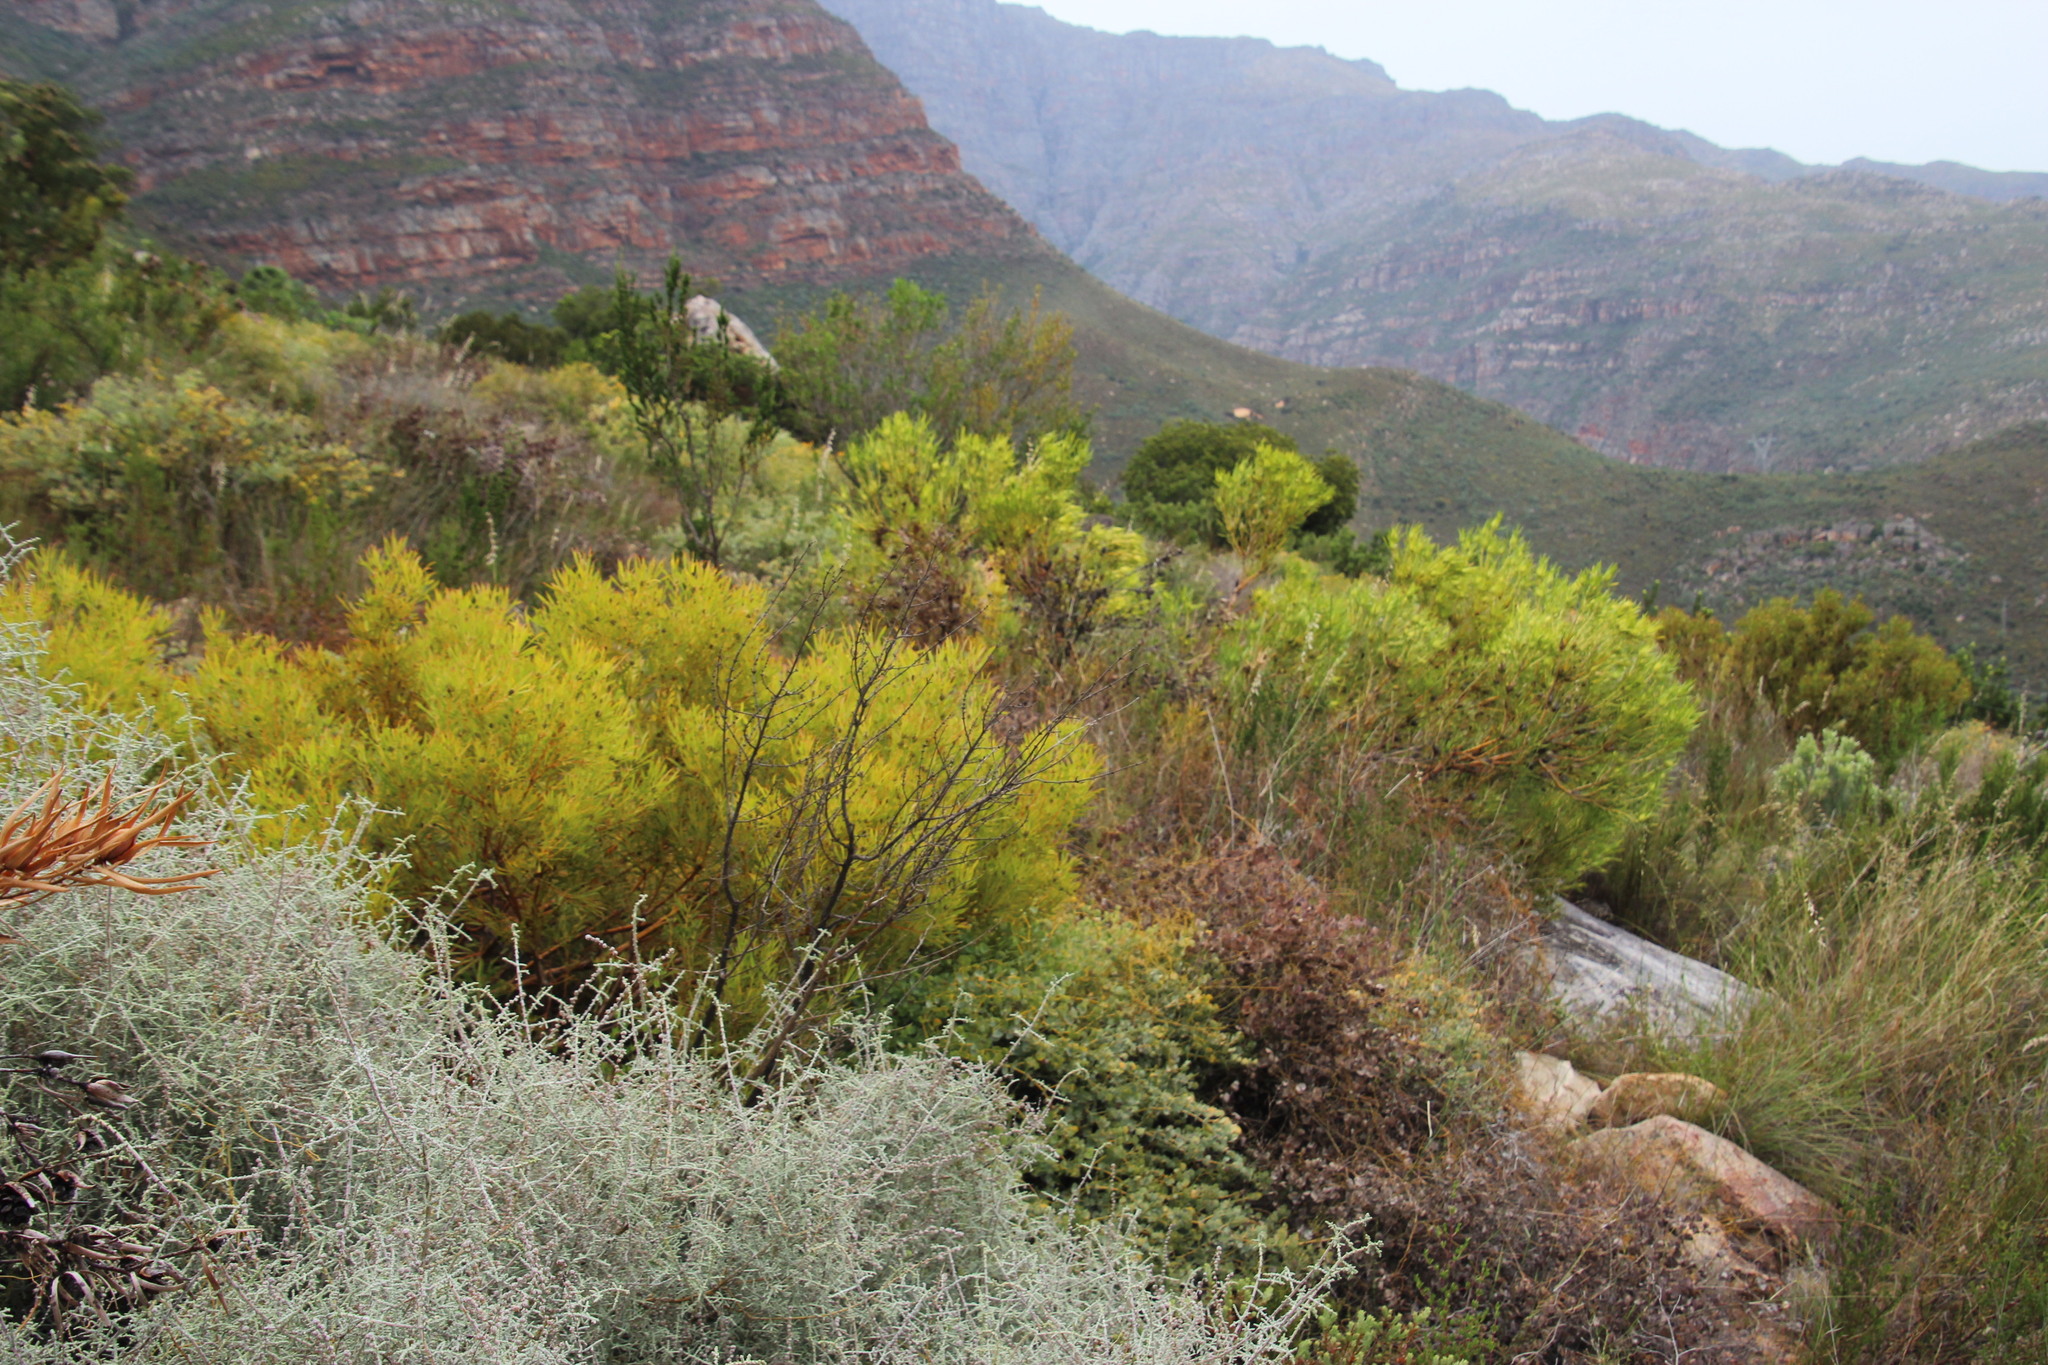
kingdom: Plantae
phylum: Tracheophyta
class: Magnoliopsida
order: Proteales
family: Proteaceae
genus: Leucadendron
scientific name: Leucadendron salignum
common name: Common sunshine conebush
